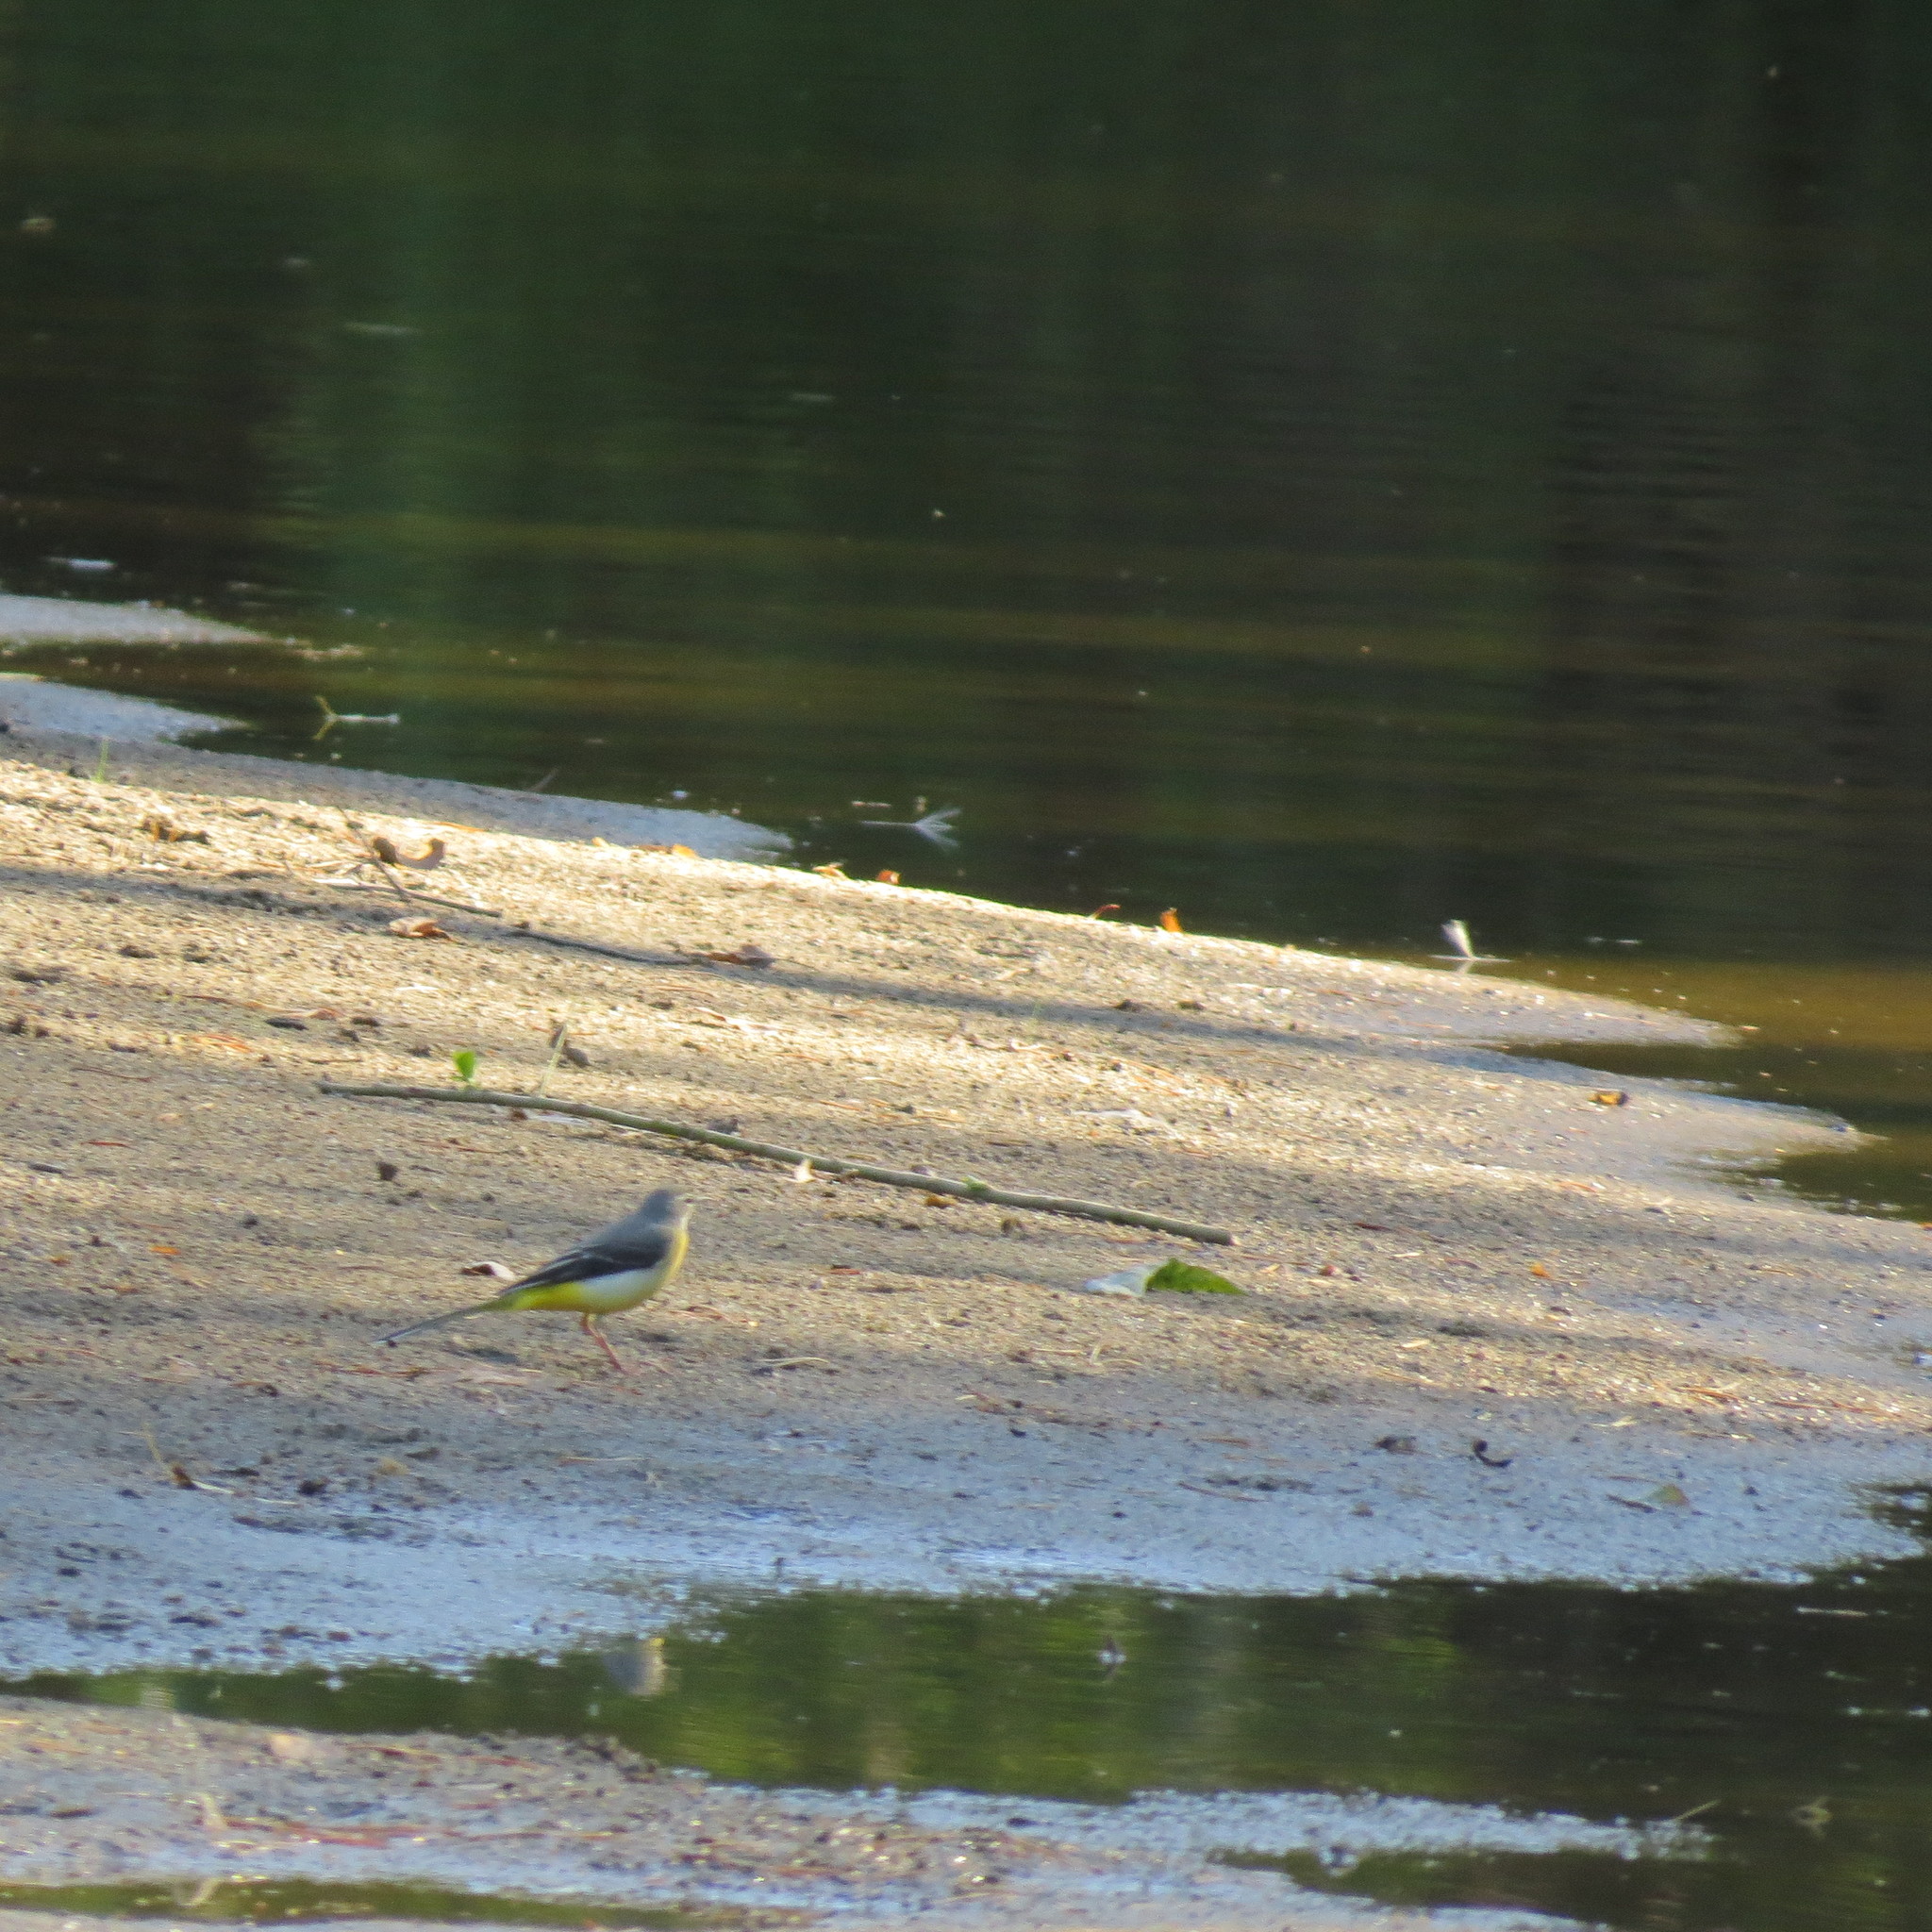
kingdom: Animalia
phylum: Chordata
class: Aves
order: Passeriformes
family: Motacillidae
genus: Motacilla
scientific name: Motacilla cinerea
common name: Grey wagtail
